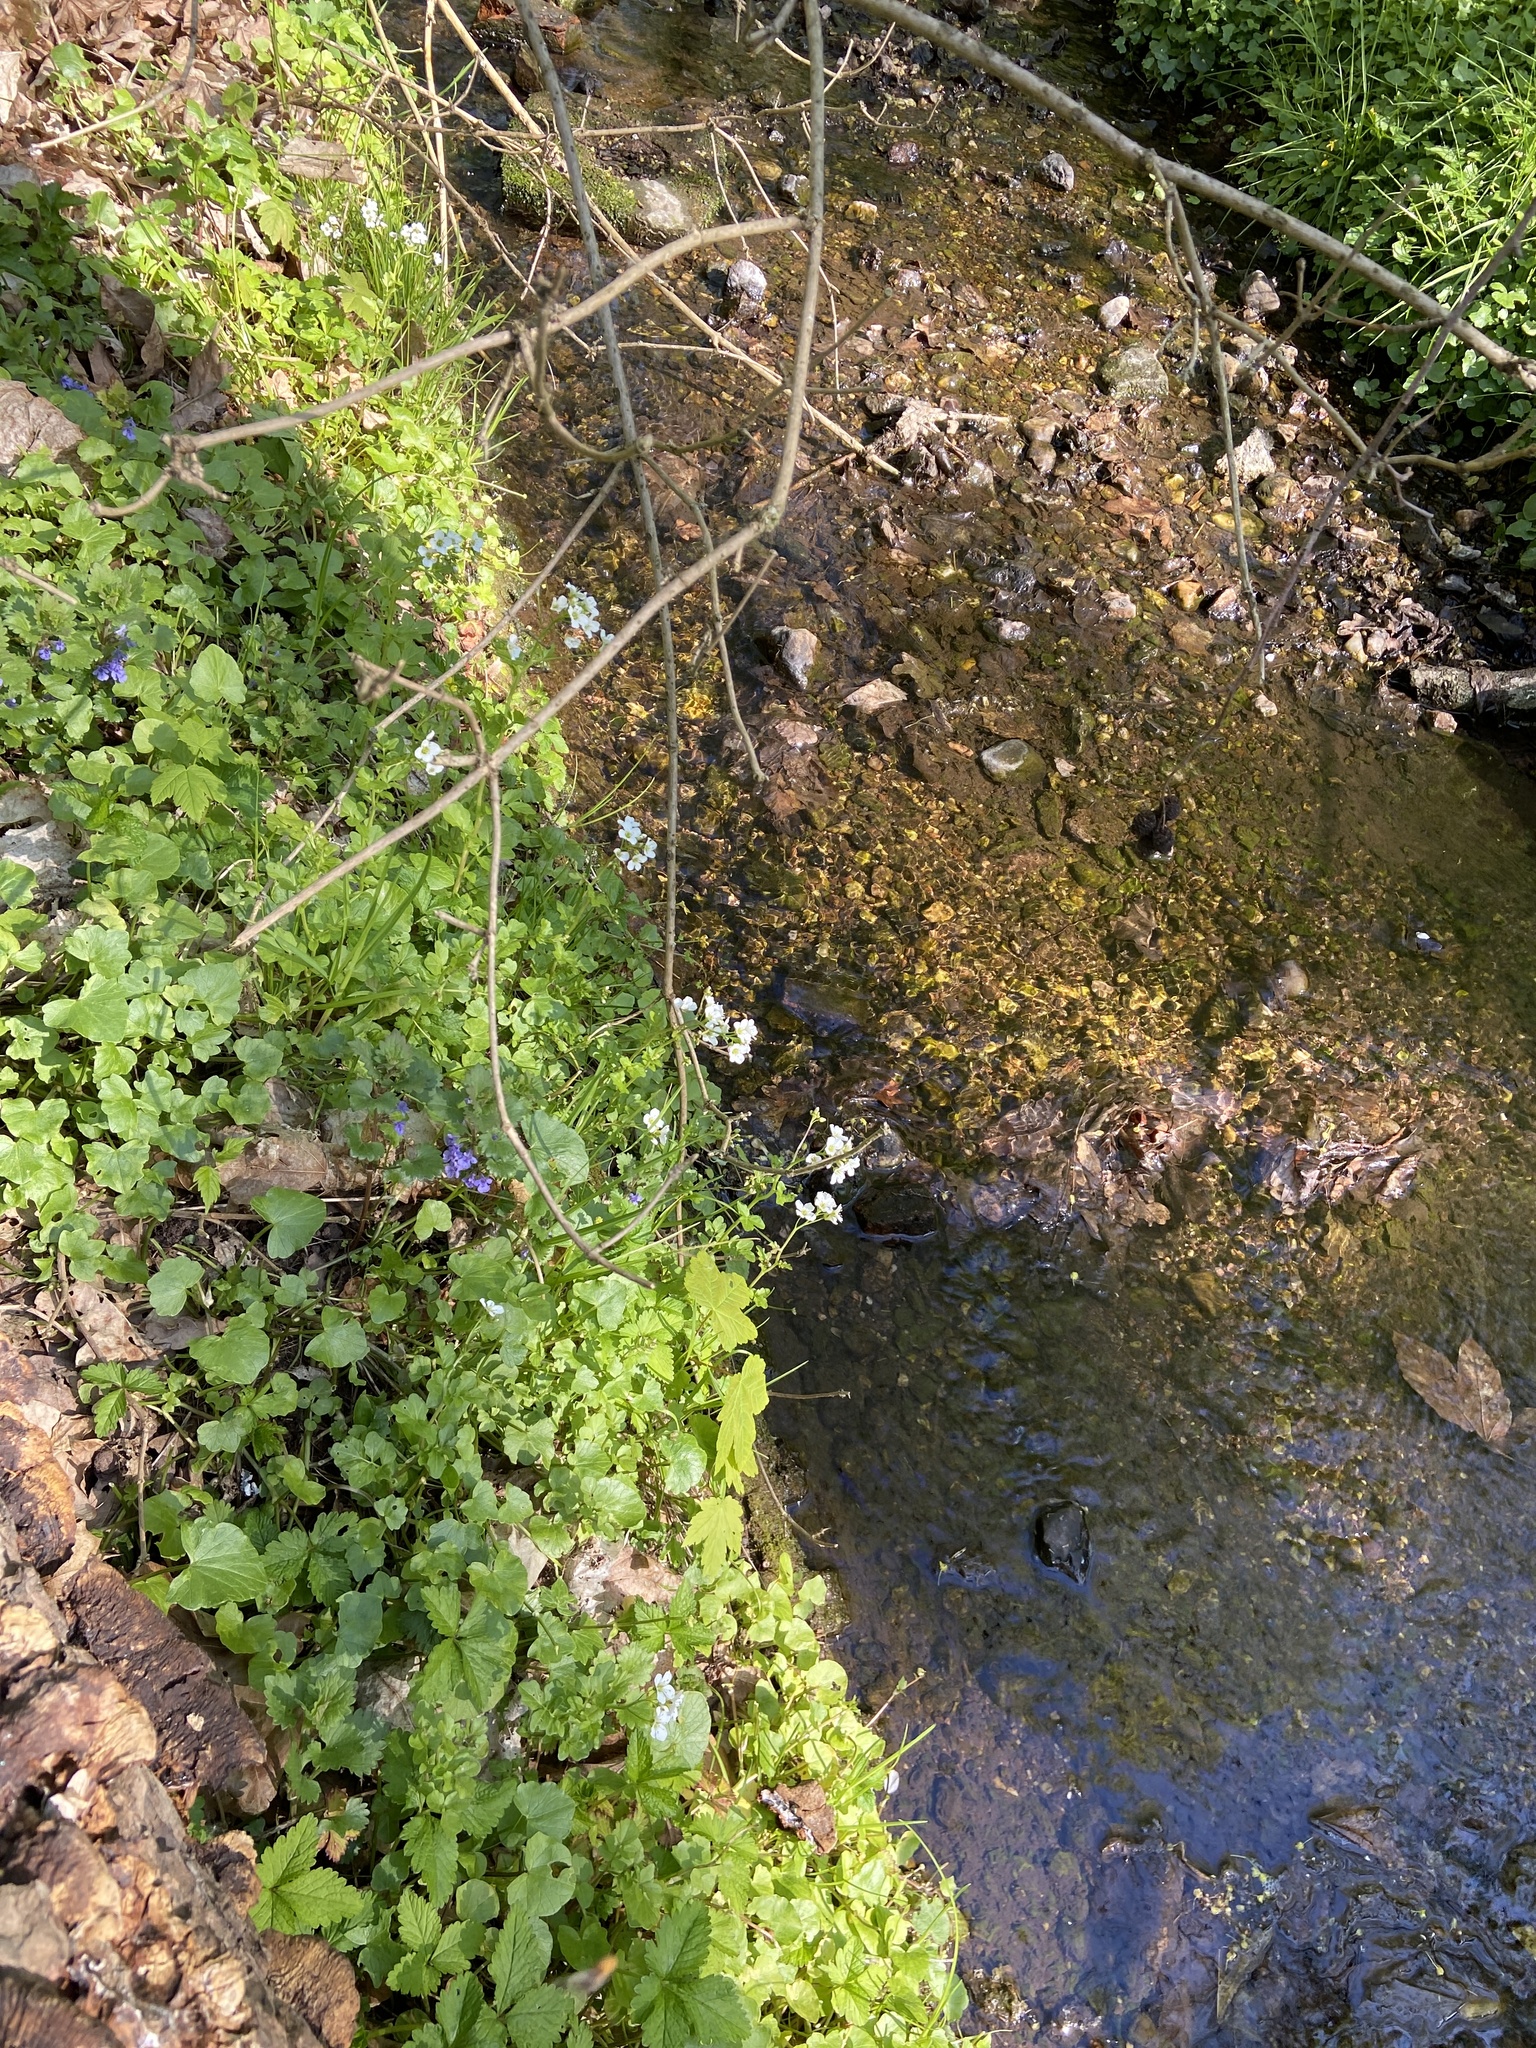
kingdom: Plantae
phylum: Tracheophyta
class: Magnoliopsida
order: Brassicales
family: Brassicaceae
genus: Cardamine
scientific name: Cardamine amara
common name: Large bitter-cress
